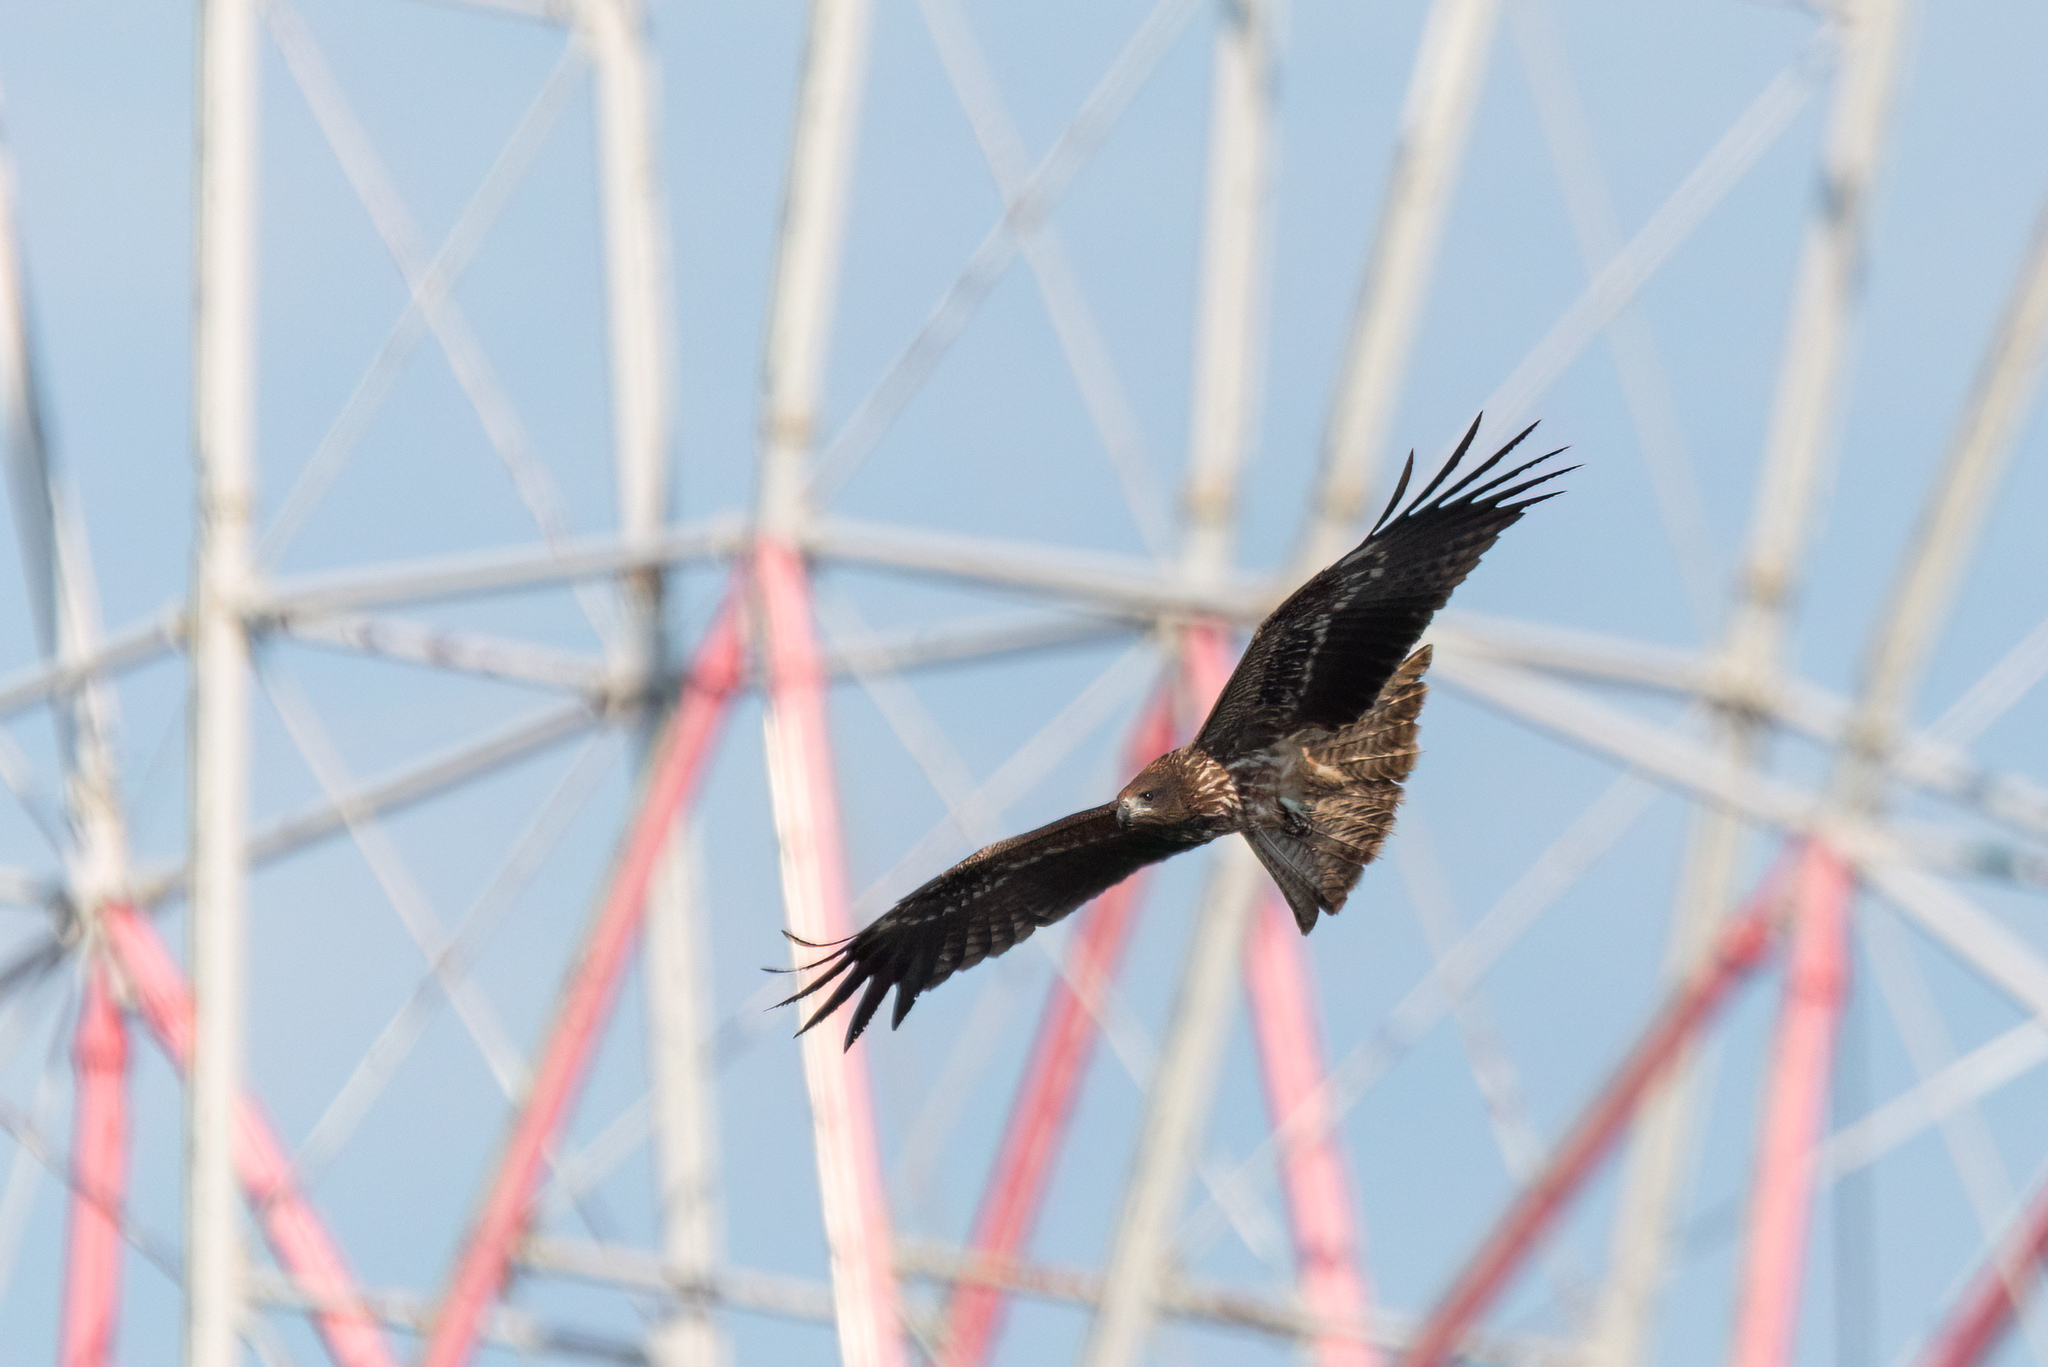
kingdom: Animalia
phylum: Chordata
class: Aves
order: Accipitriformes
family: Accipitridae
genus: Milvus
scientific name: Milvus migrans
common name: Black kite
